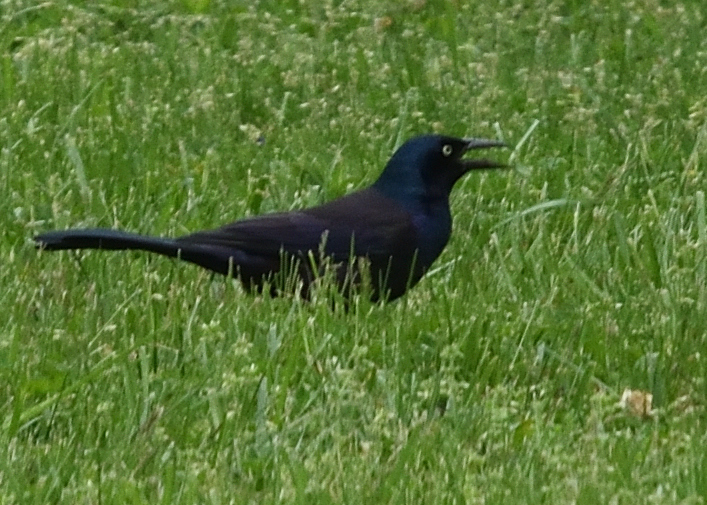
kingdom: Animalia
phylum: Chordata
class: Aves
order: Passeriformes
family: Icteridae
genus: Quiscalus
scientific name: Quiscalus quiscula
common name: Common grackle
